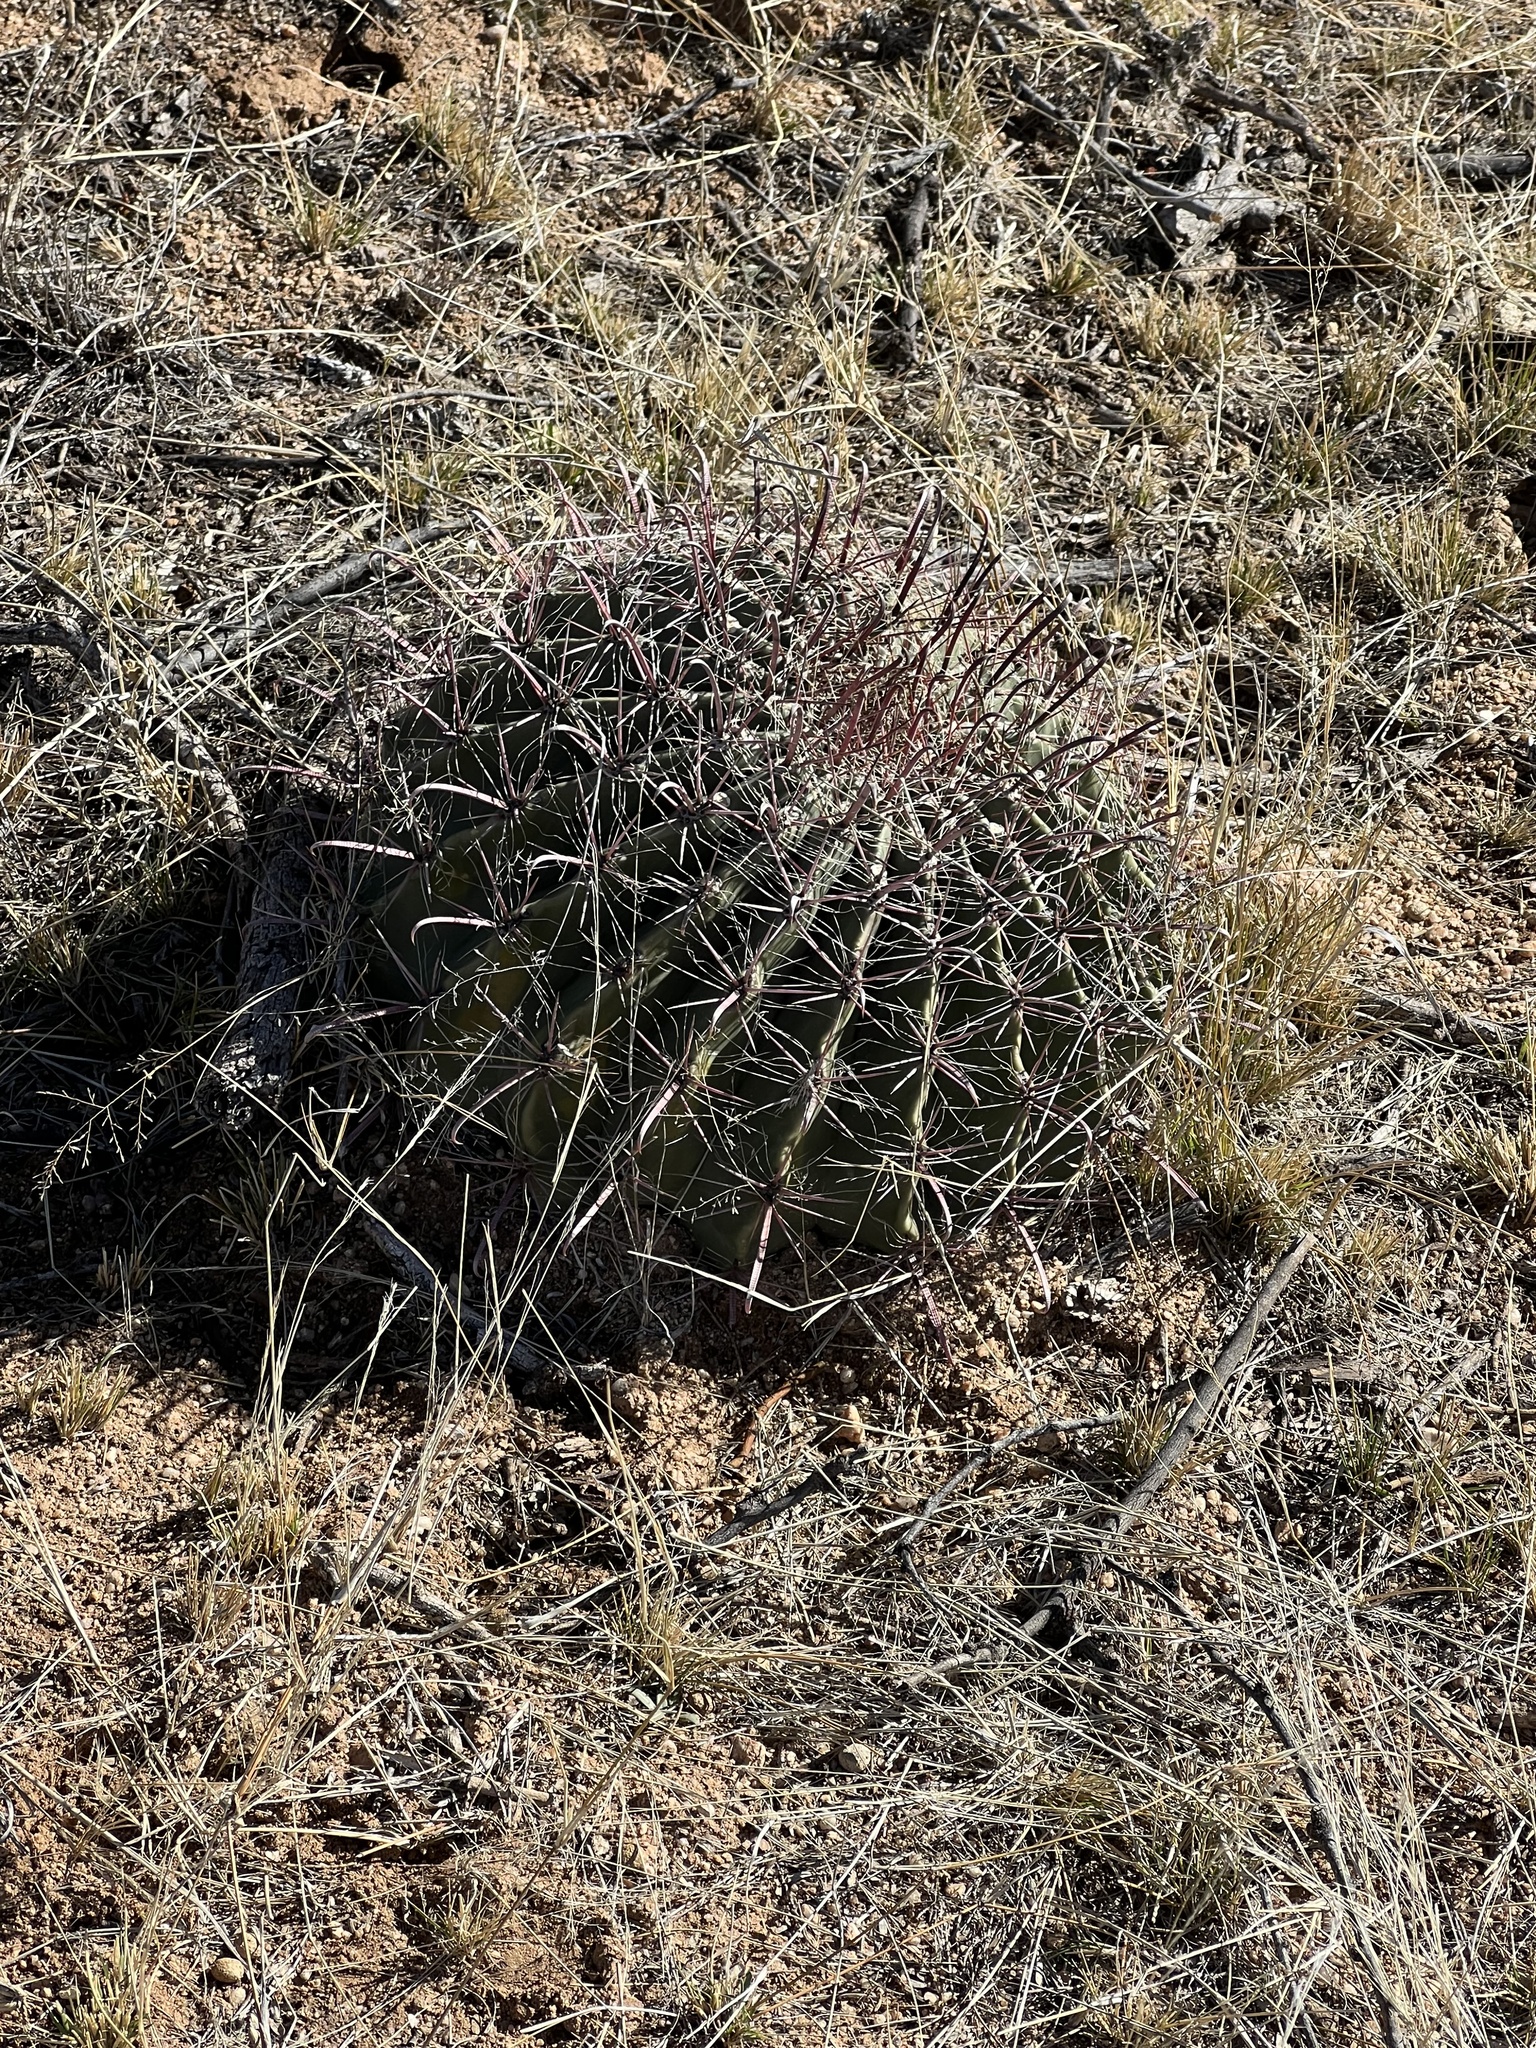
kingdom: Plantae
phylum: Tracheophyta
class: Magnoliopsida
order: Caryophyllales
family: Cactaceae
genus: Ferocactus
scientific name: Ferocactus wislizeni
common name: Candy barrel cactus
